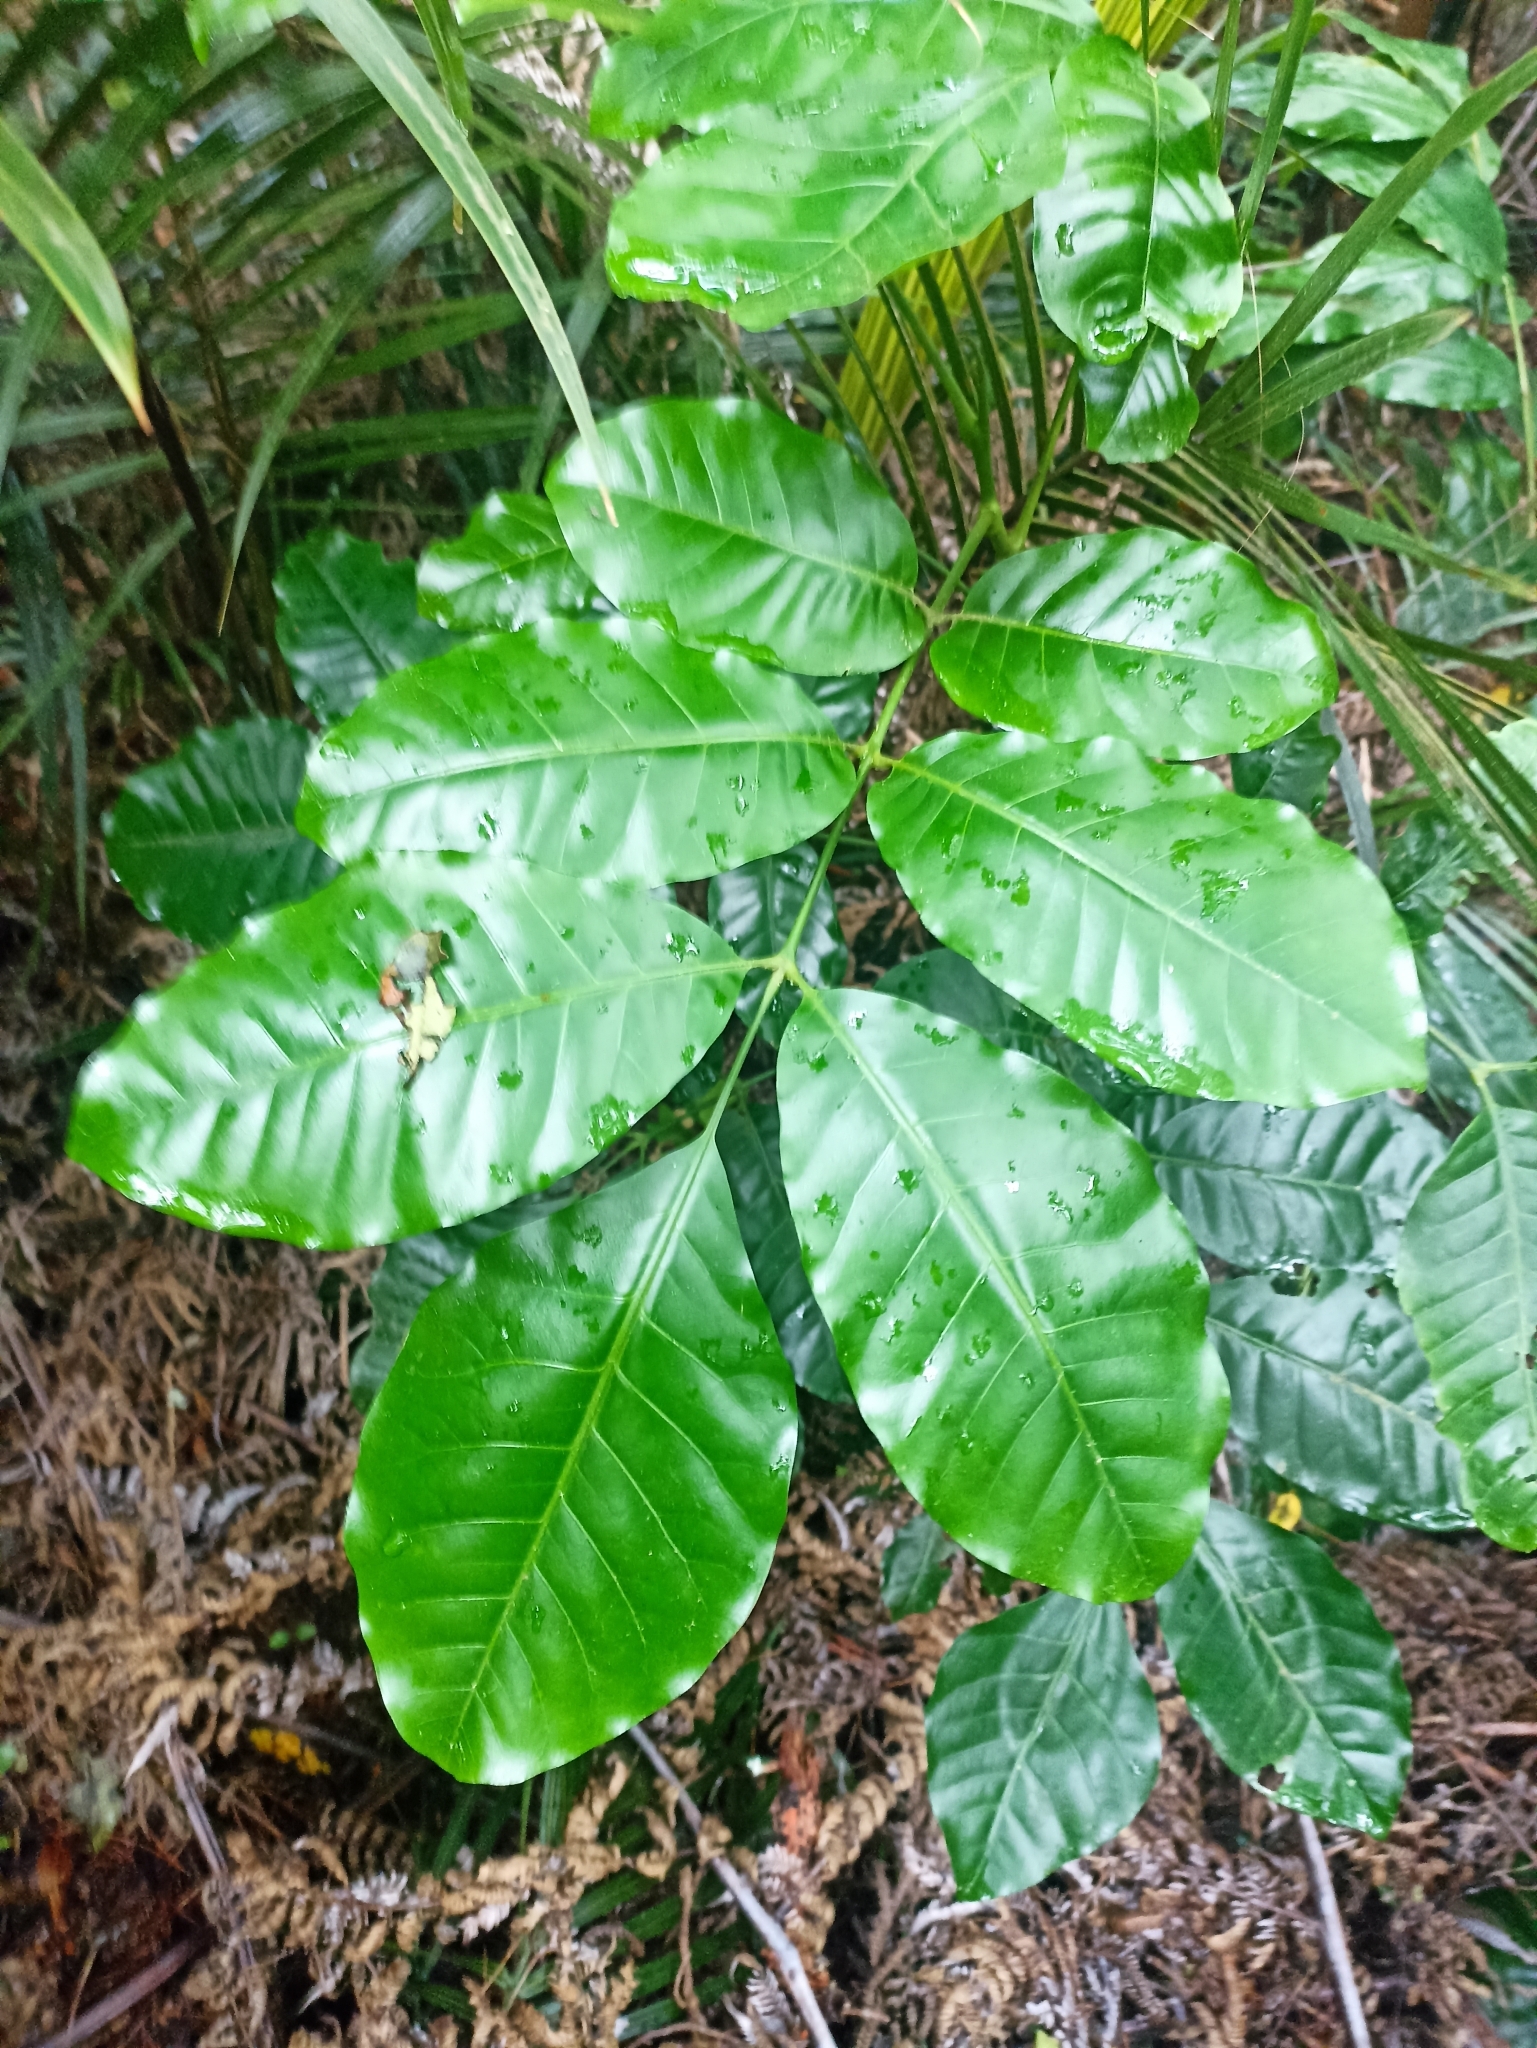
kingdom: Plantae
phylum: Tracheophyta
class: Magnoliopsida
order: Sapindales
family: Meliaceae
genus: Didymocheton
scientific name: Didymocheton spectabilis
